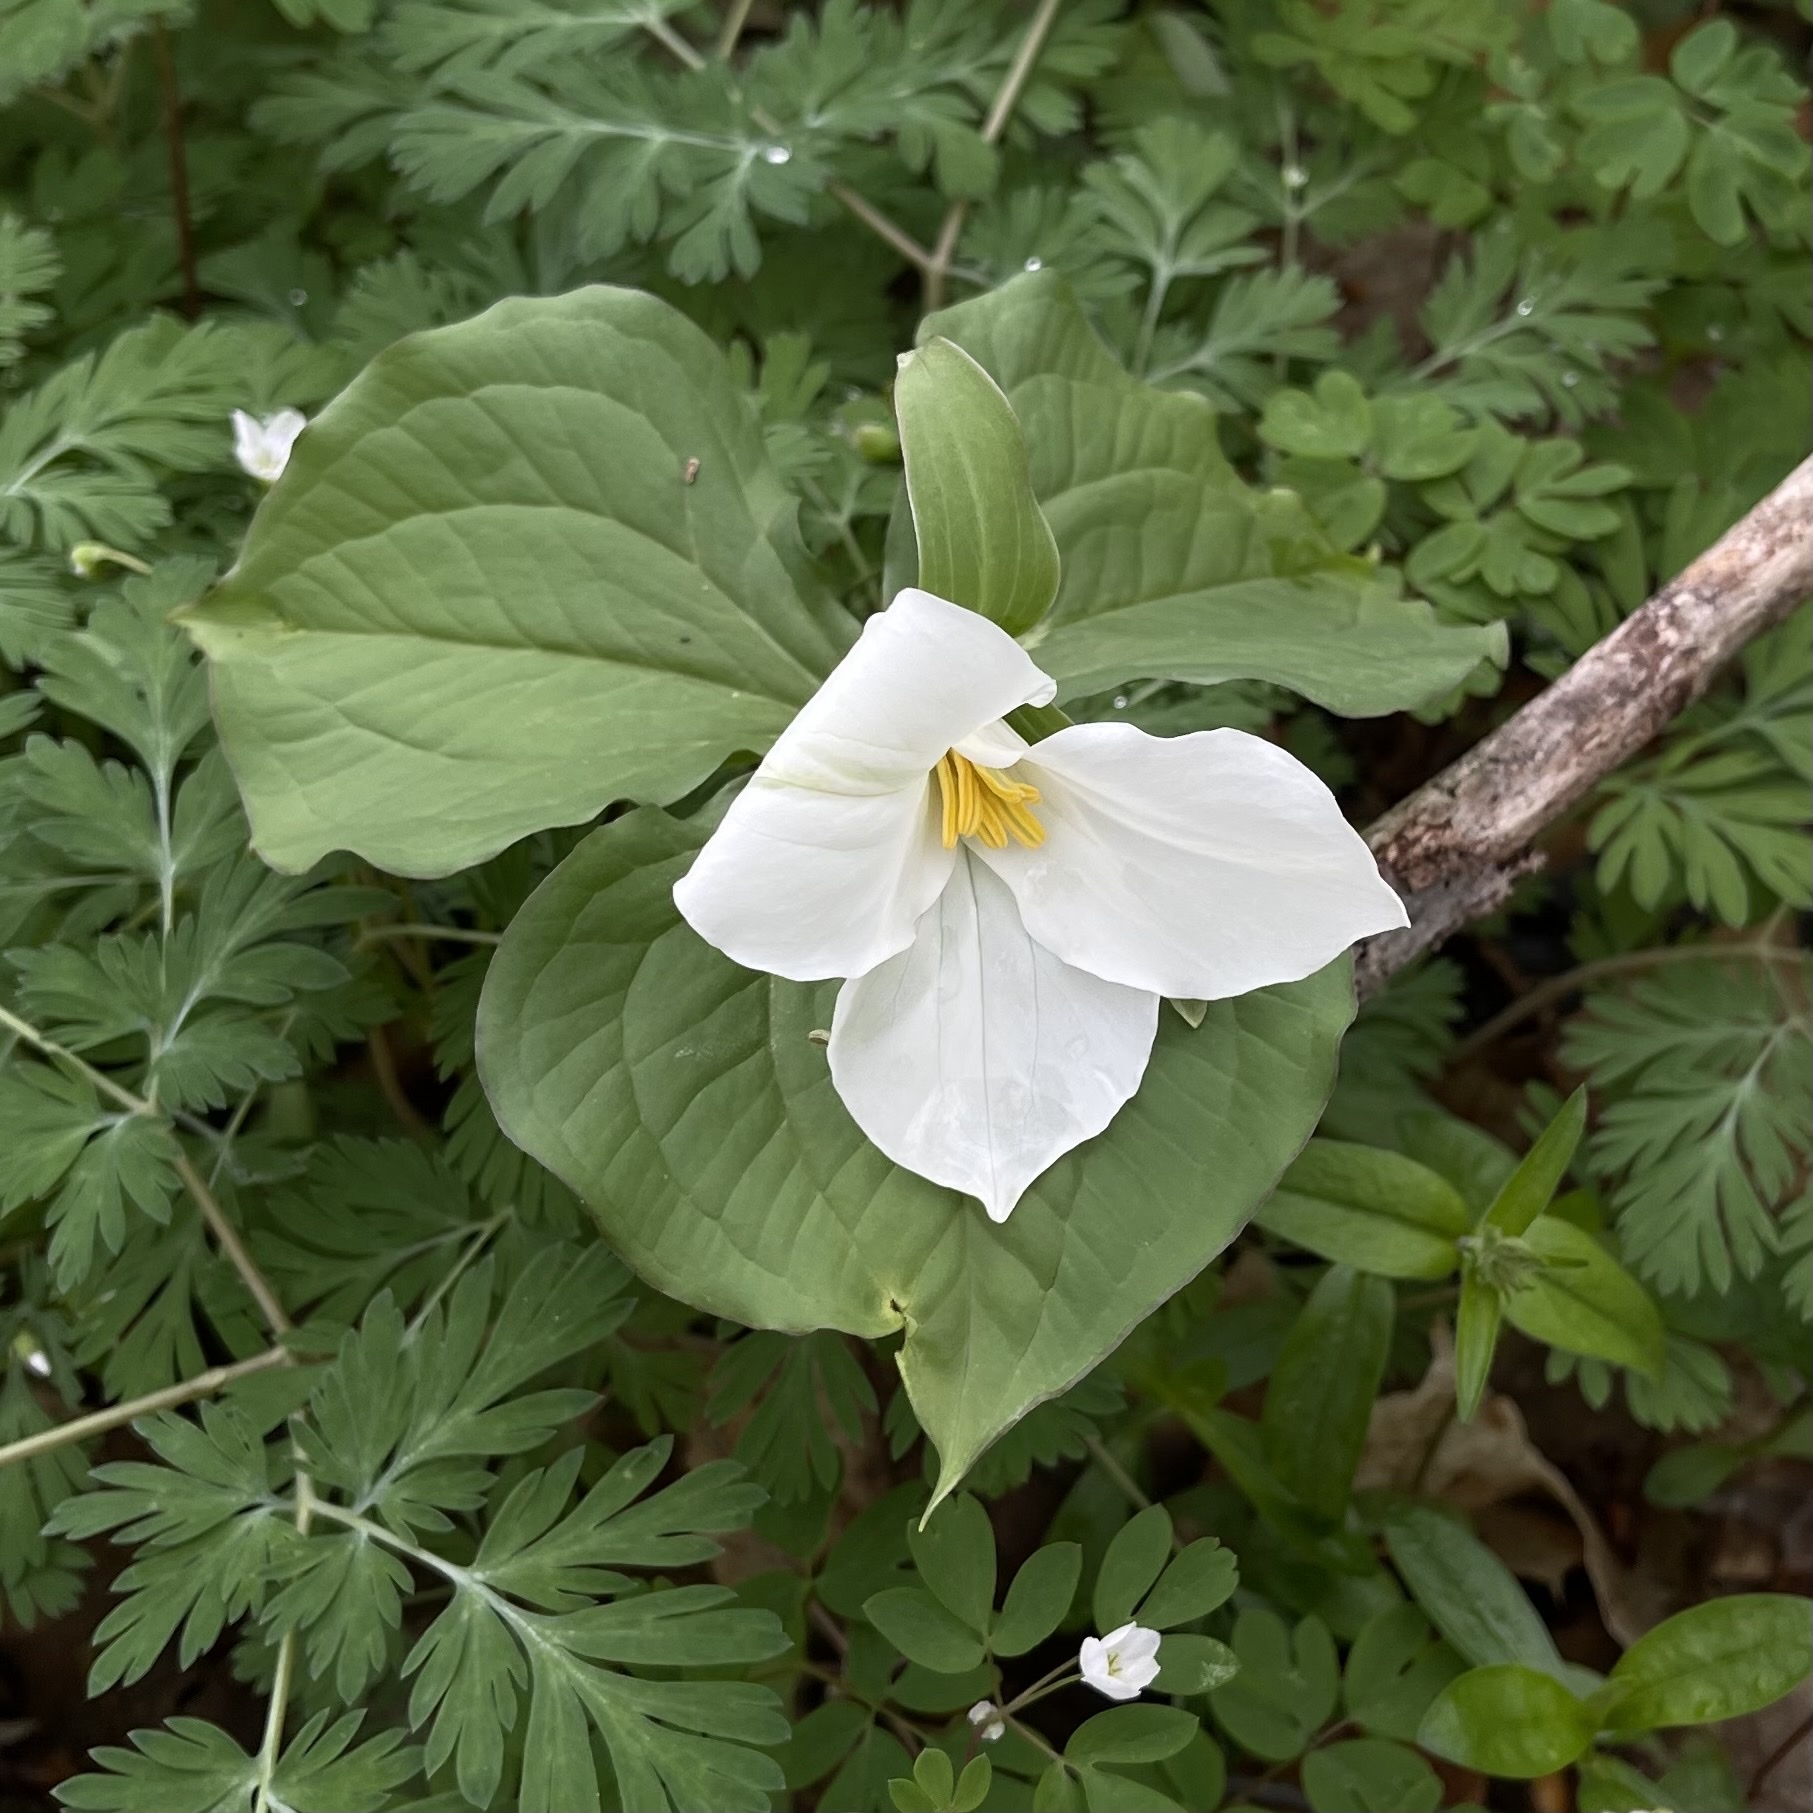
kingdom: Plantae
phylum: Tracheophyta
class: Liliopsida
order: Liliales
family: Melanthiaceae
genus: Trillium
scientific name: Trillium grandiflorum
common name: Great white trillium
